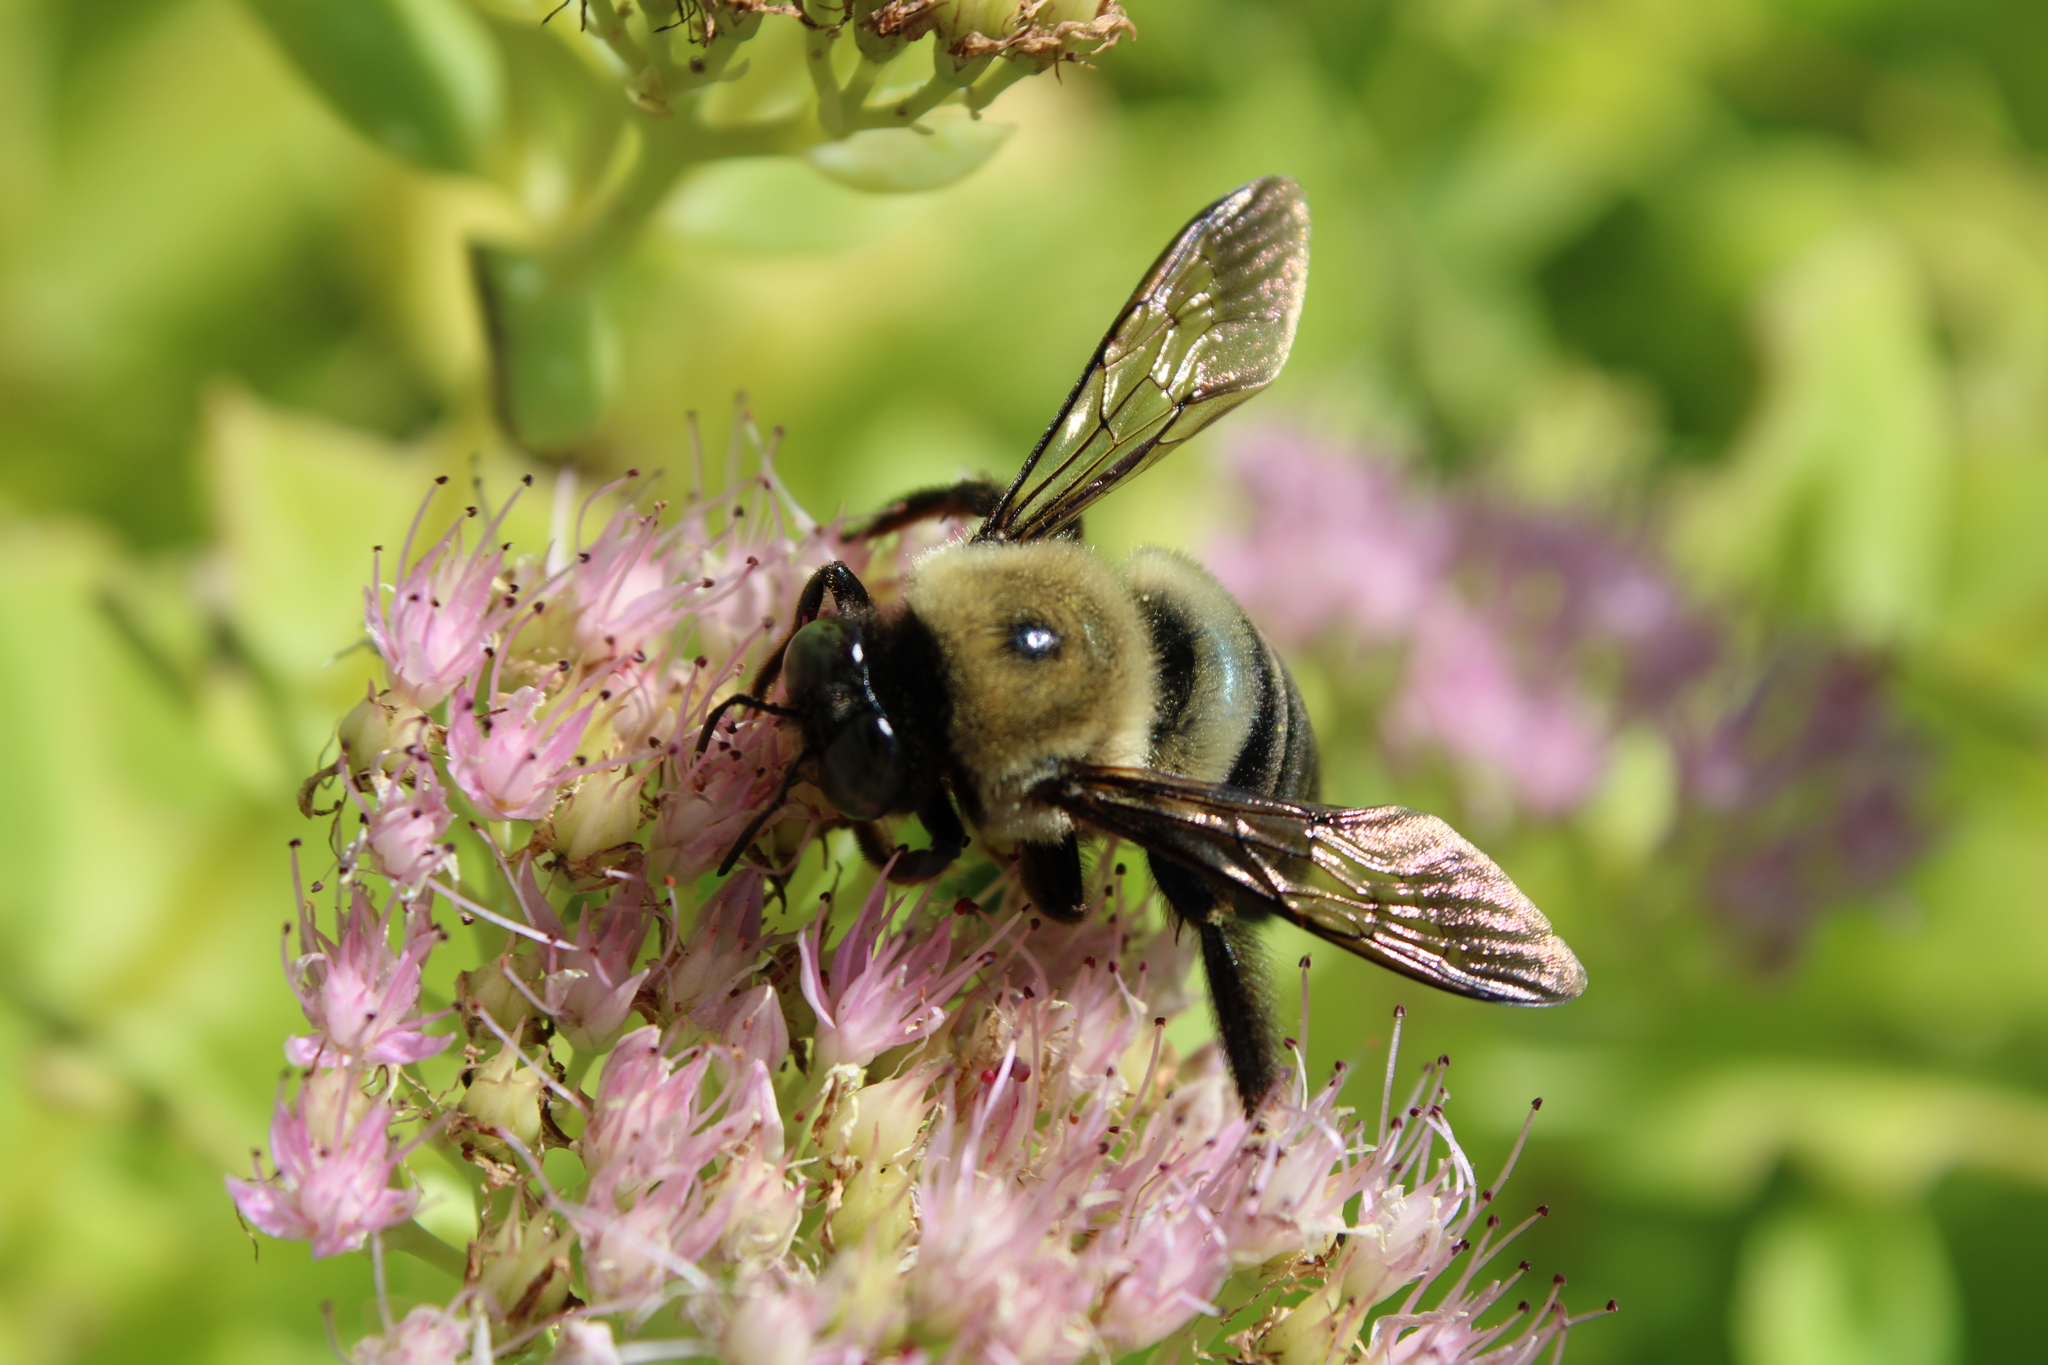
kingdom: Animalia
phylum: Arthropoda
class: Insecta
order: Hymenoptera
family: Apidae
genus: Xylocopa
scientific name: Xylocopa virginica
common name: Carpenter bee
